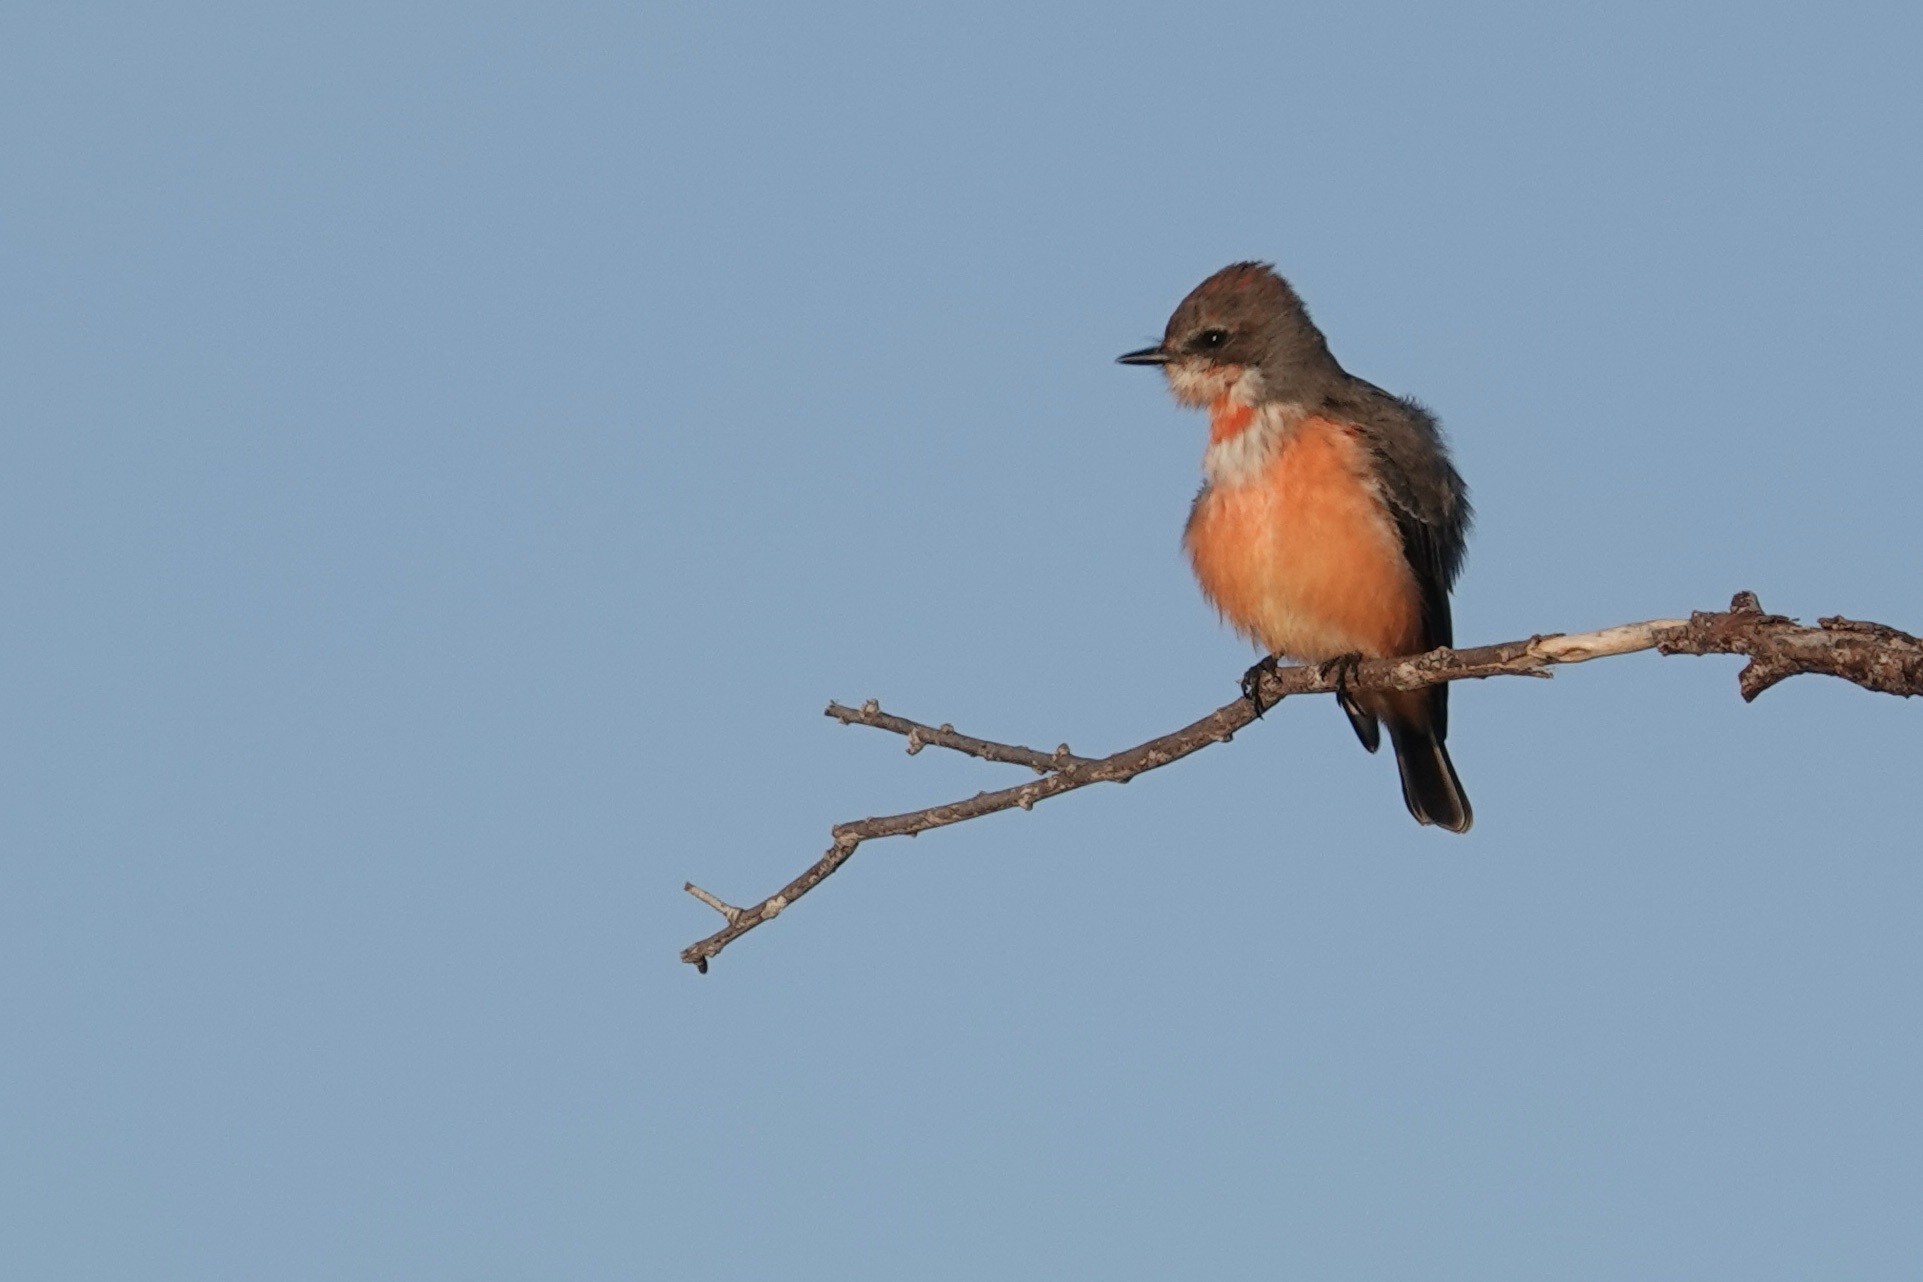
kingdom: Animalia
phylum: Chordata
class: Aves
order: Passeriformes
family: Tyrannidae
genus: Pyrocephalus
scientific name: Pyrocephalus rubinus
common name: Vermilion flycatcher
